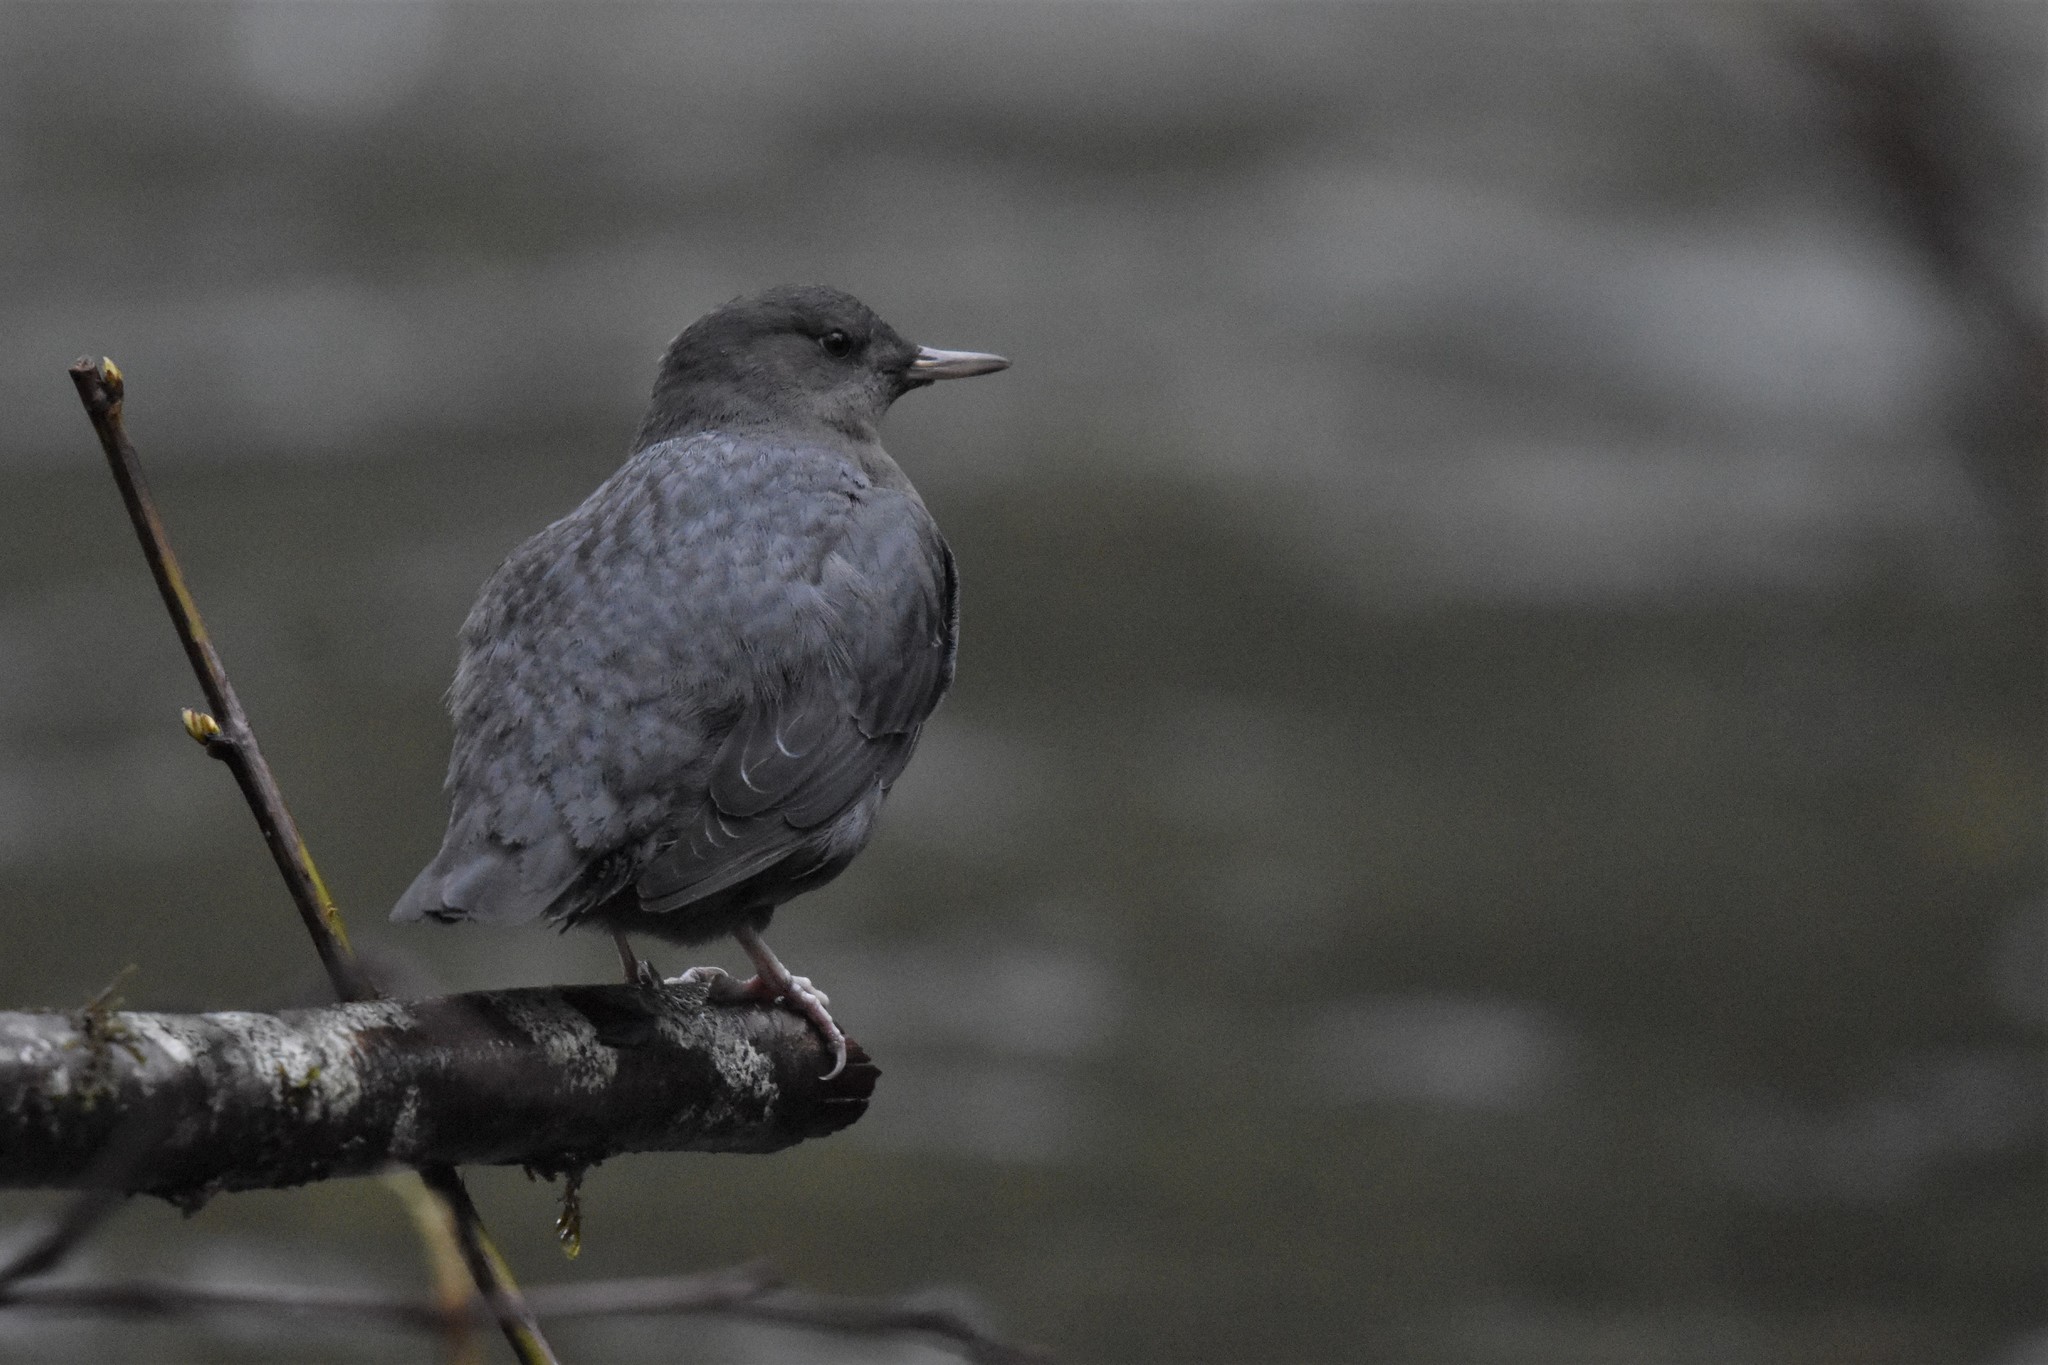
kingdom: Animalia
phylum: Chordata
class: Aves
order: Passeriformes
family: Cinclidae
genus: Cinclus
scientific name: Cinclus mexicanus
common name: American dipper
